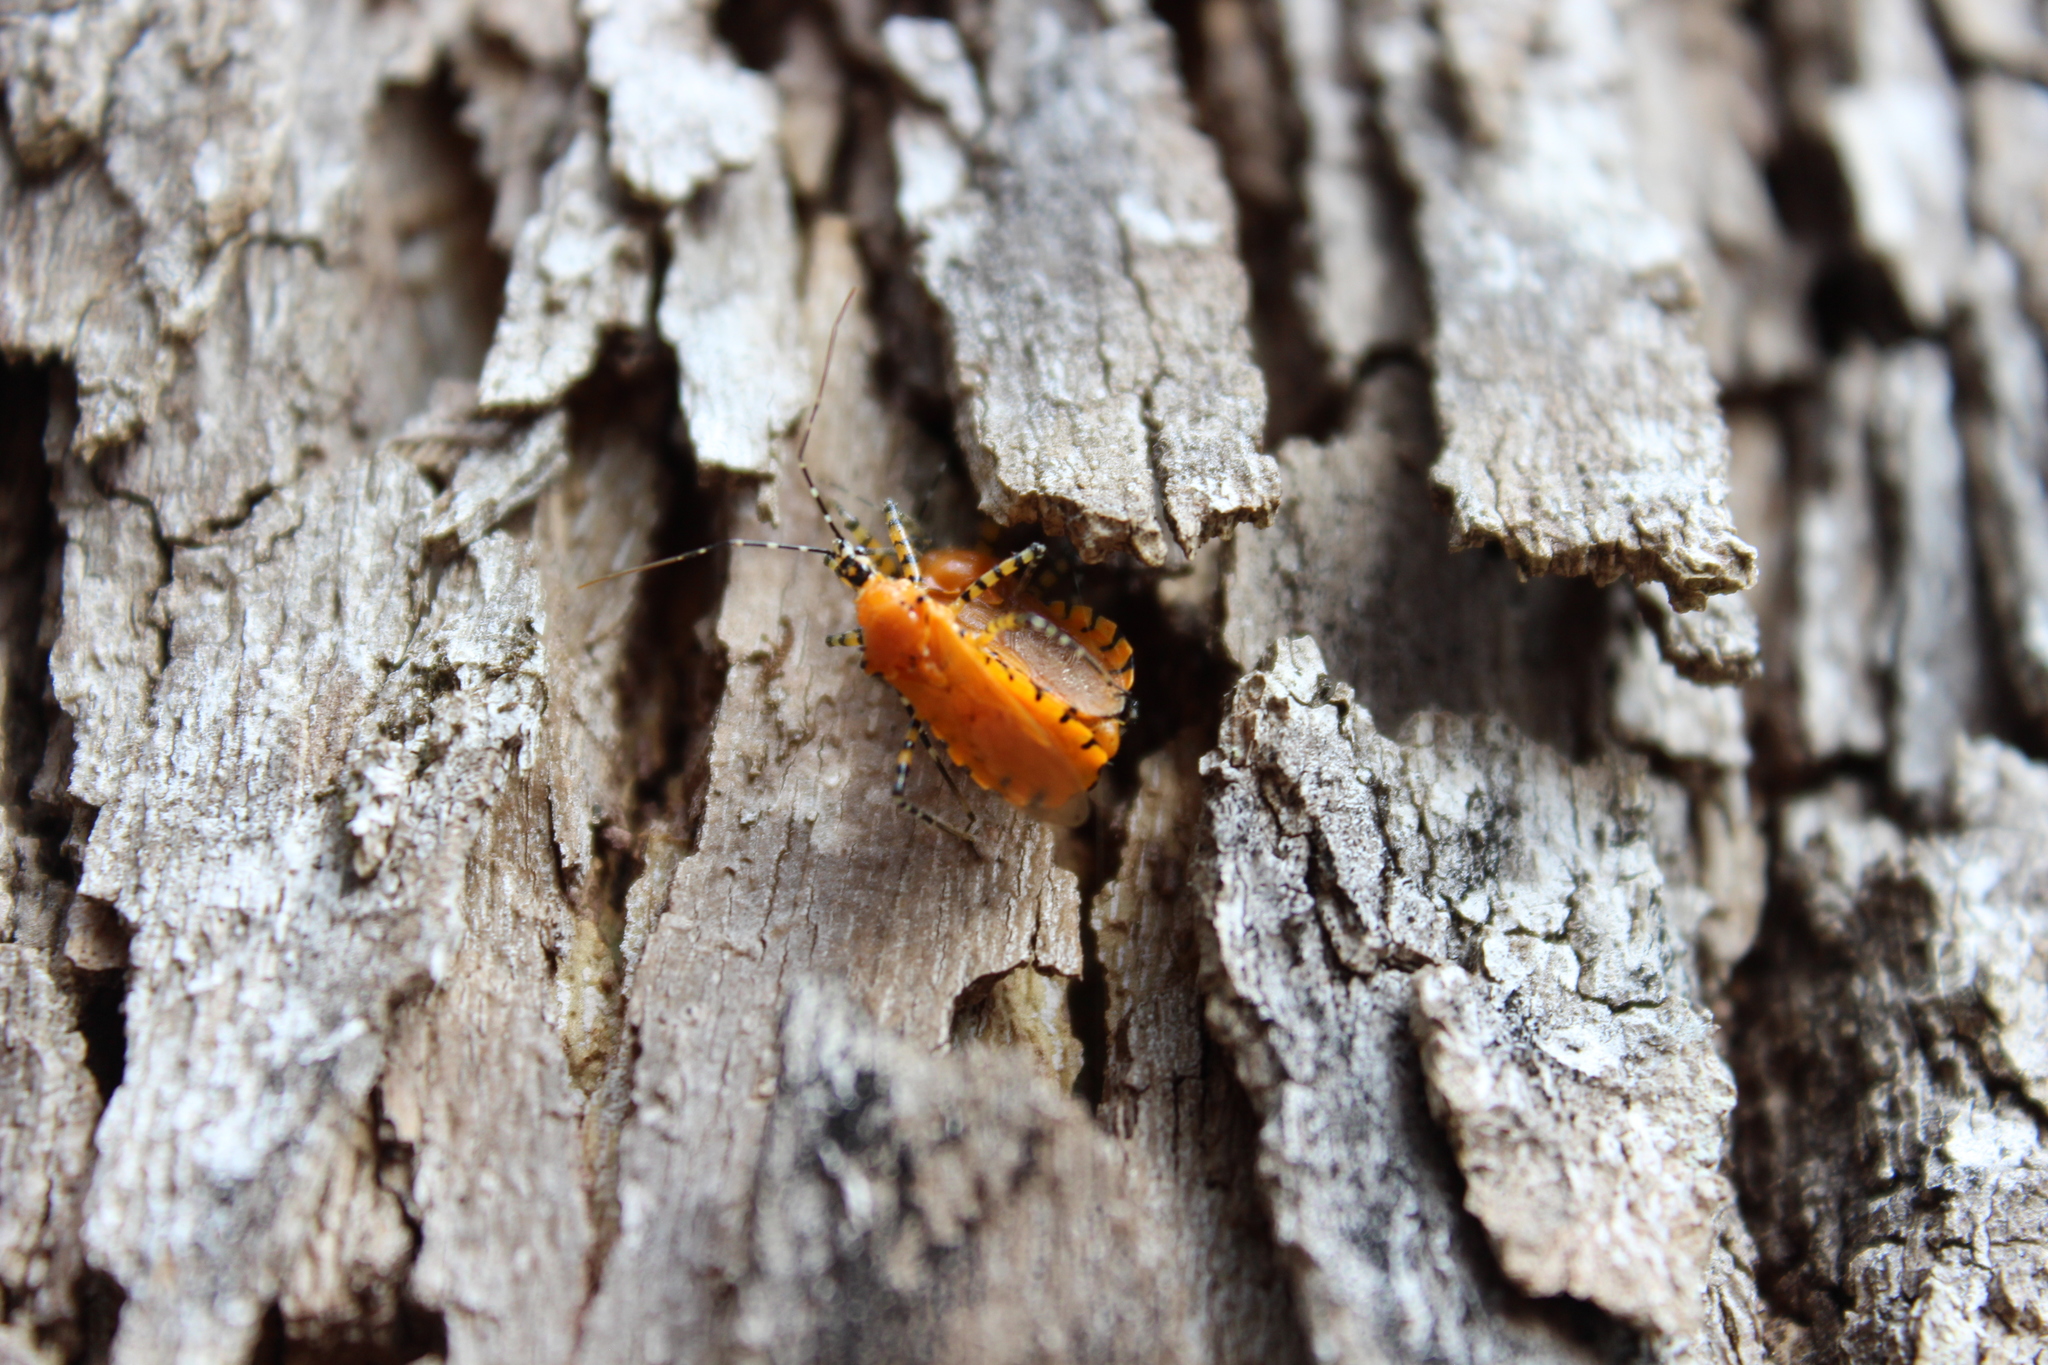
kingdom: Animalia
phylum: Arthropoda
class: Insecta
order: Hemiptera
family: Reduviidae
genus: Pselliopus
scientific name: Pselliopus barberi
